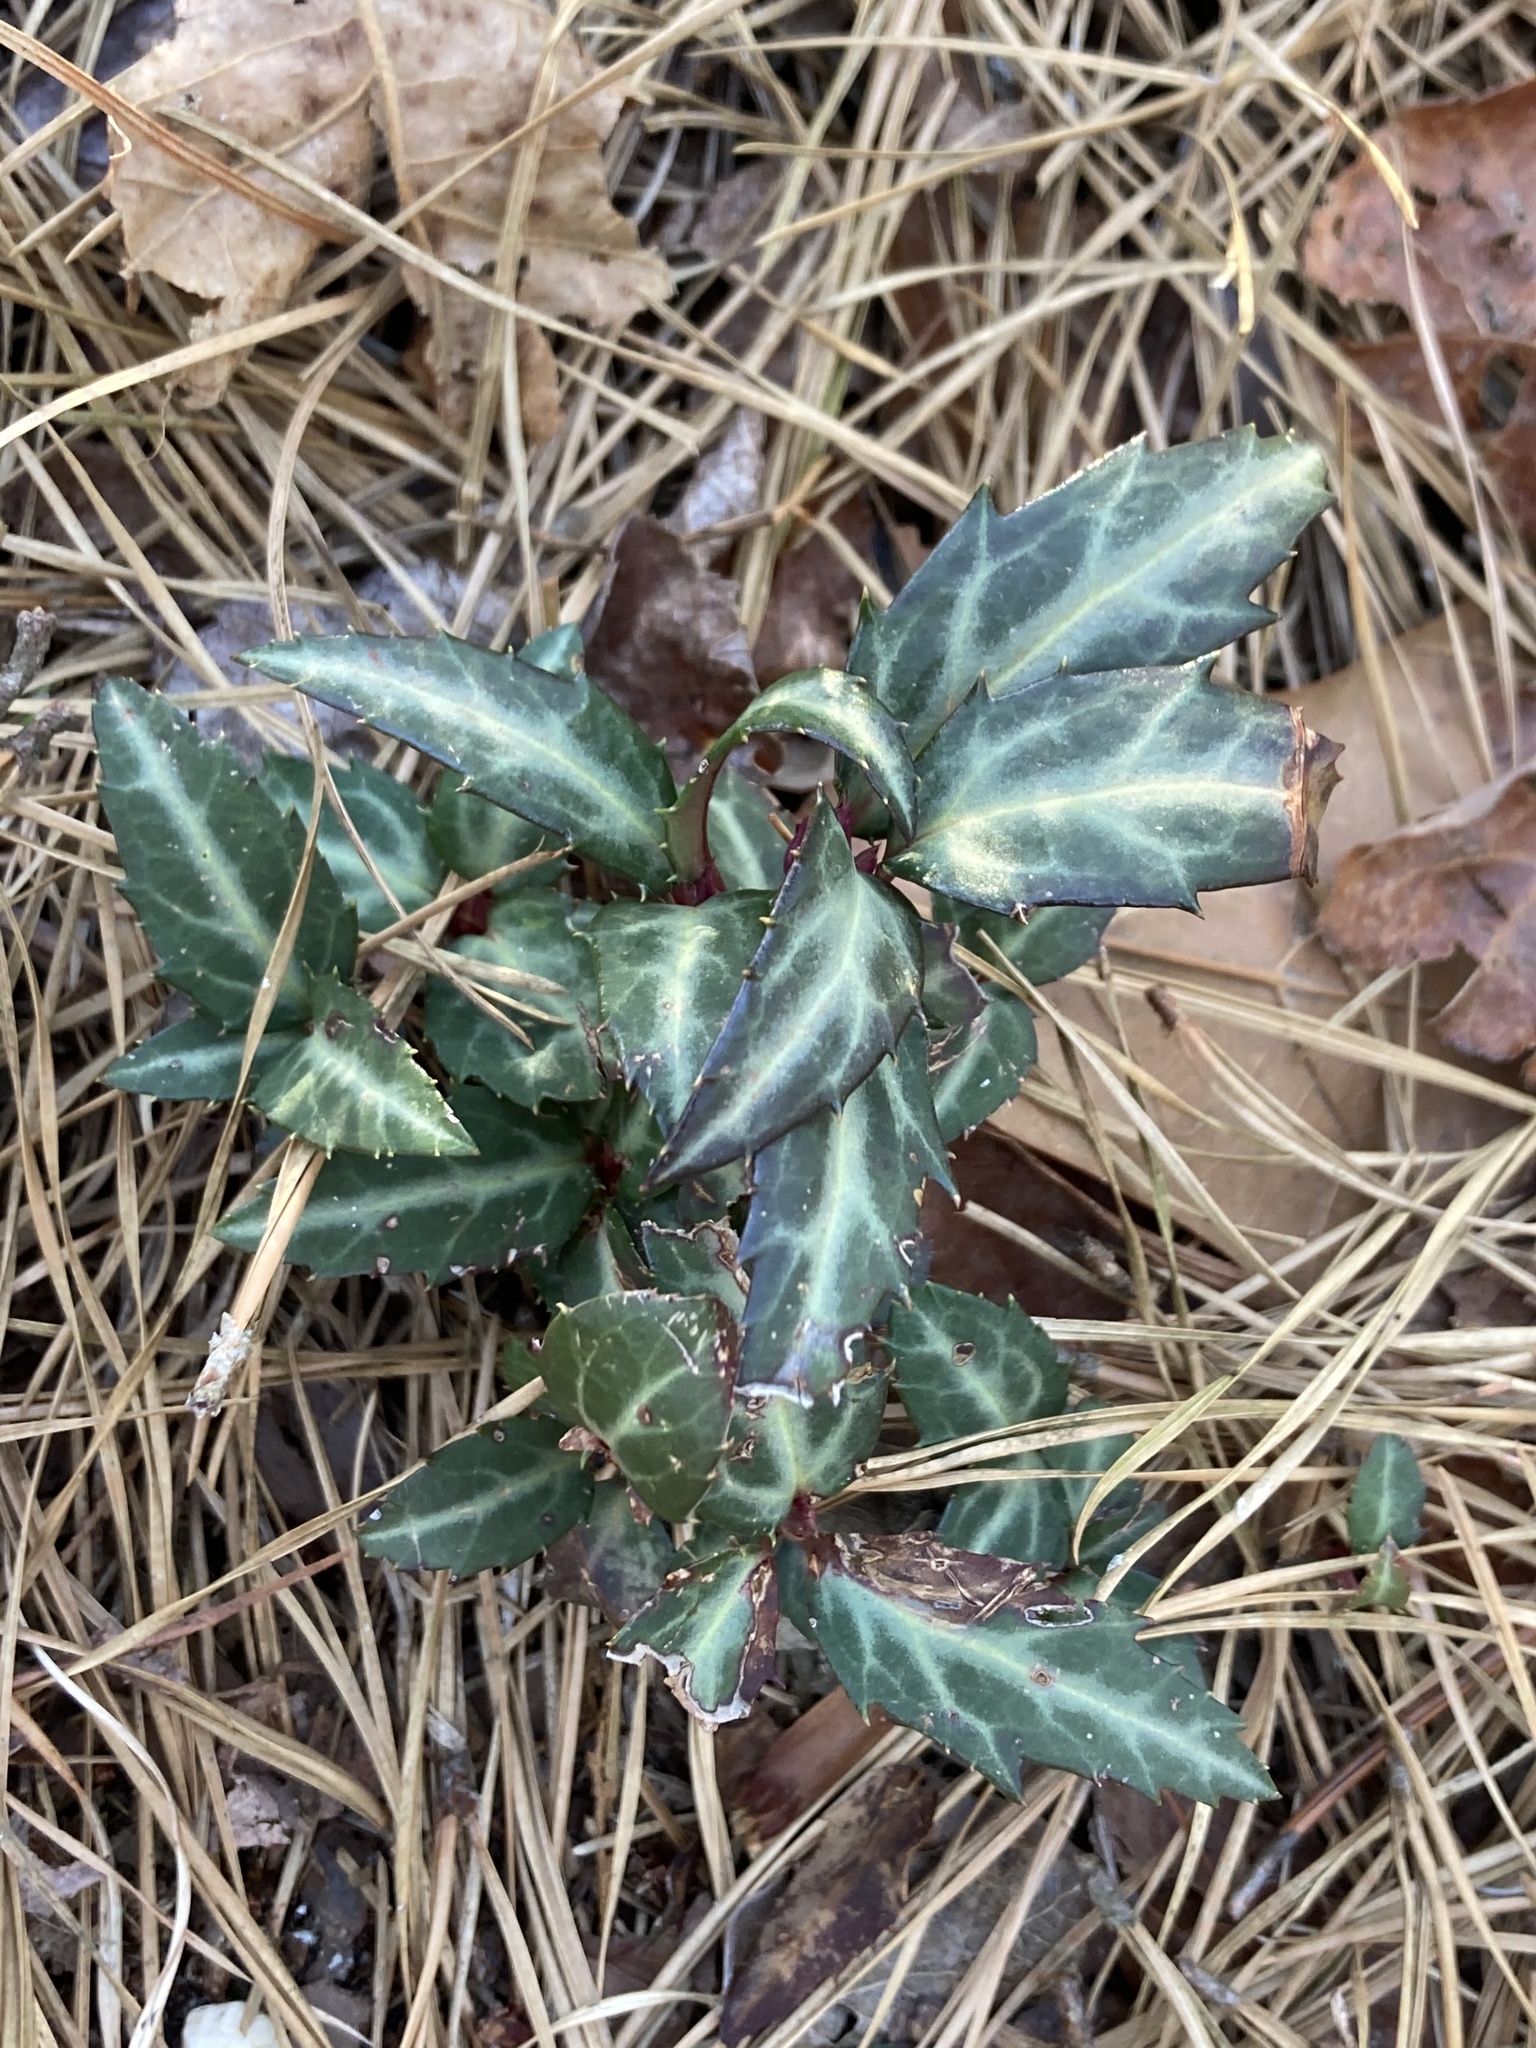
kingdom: Plantae
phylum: Tracheophyta
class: Magnoliopsida
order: Ericales
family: Ericaceae
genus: Chimaphila
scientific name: Chimaphila maculata
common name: Spotted pipsissewa
